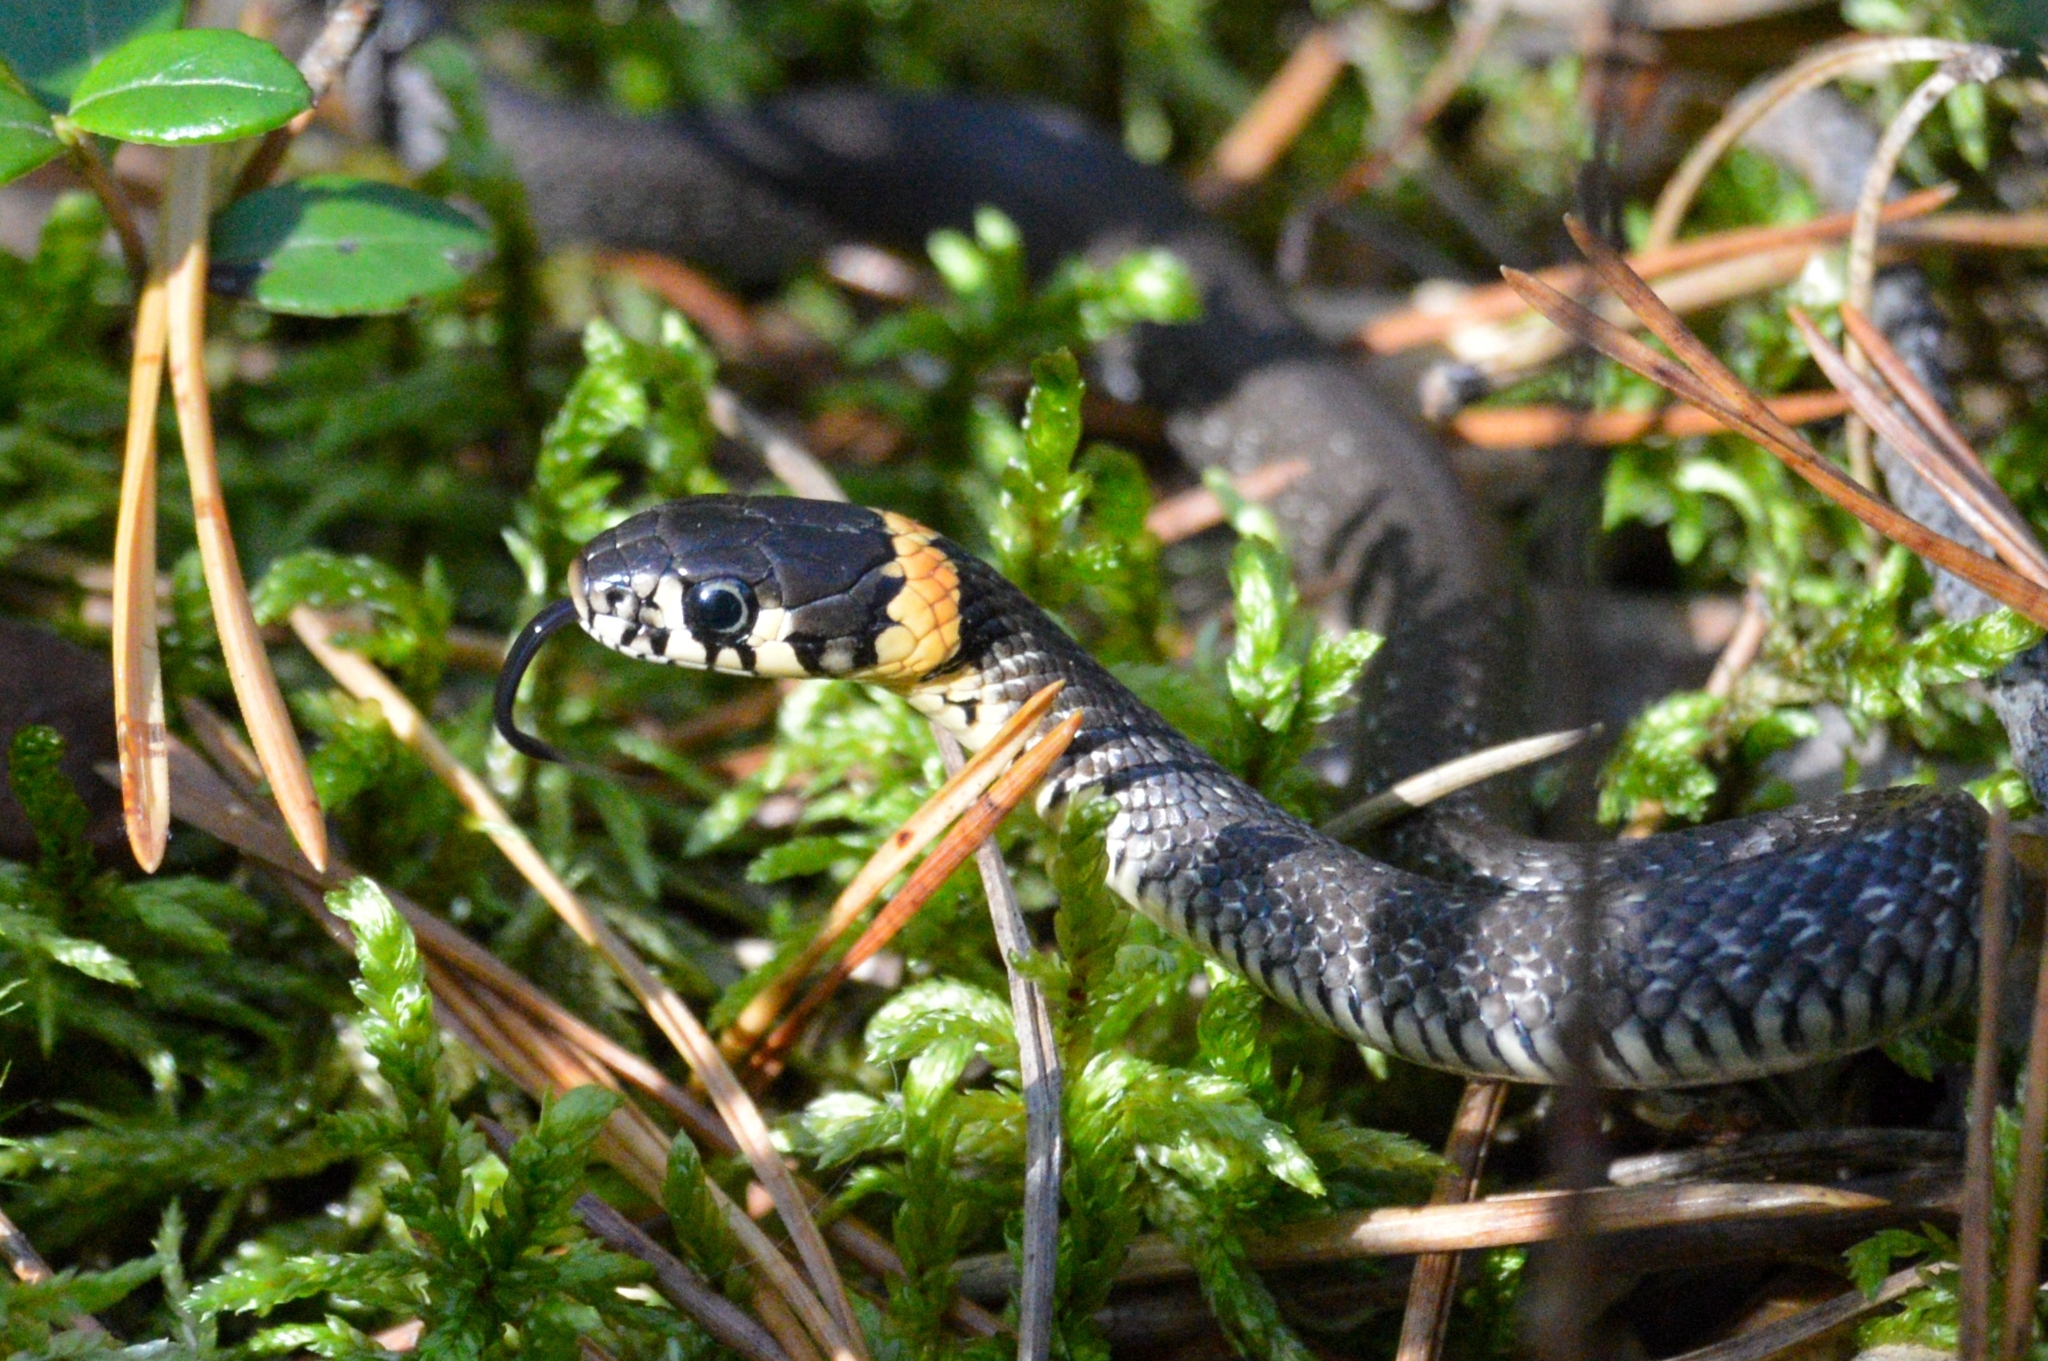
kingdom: Animalia
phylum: Chordata
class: Squamata
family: Colubridae
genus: Natrix
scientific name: Natrix natrix
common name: Grass snake
